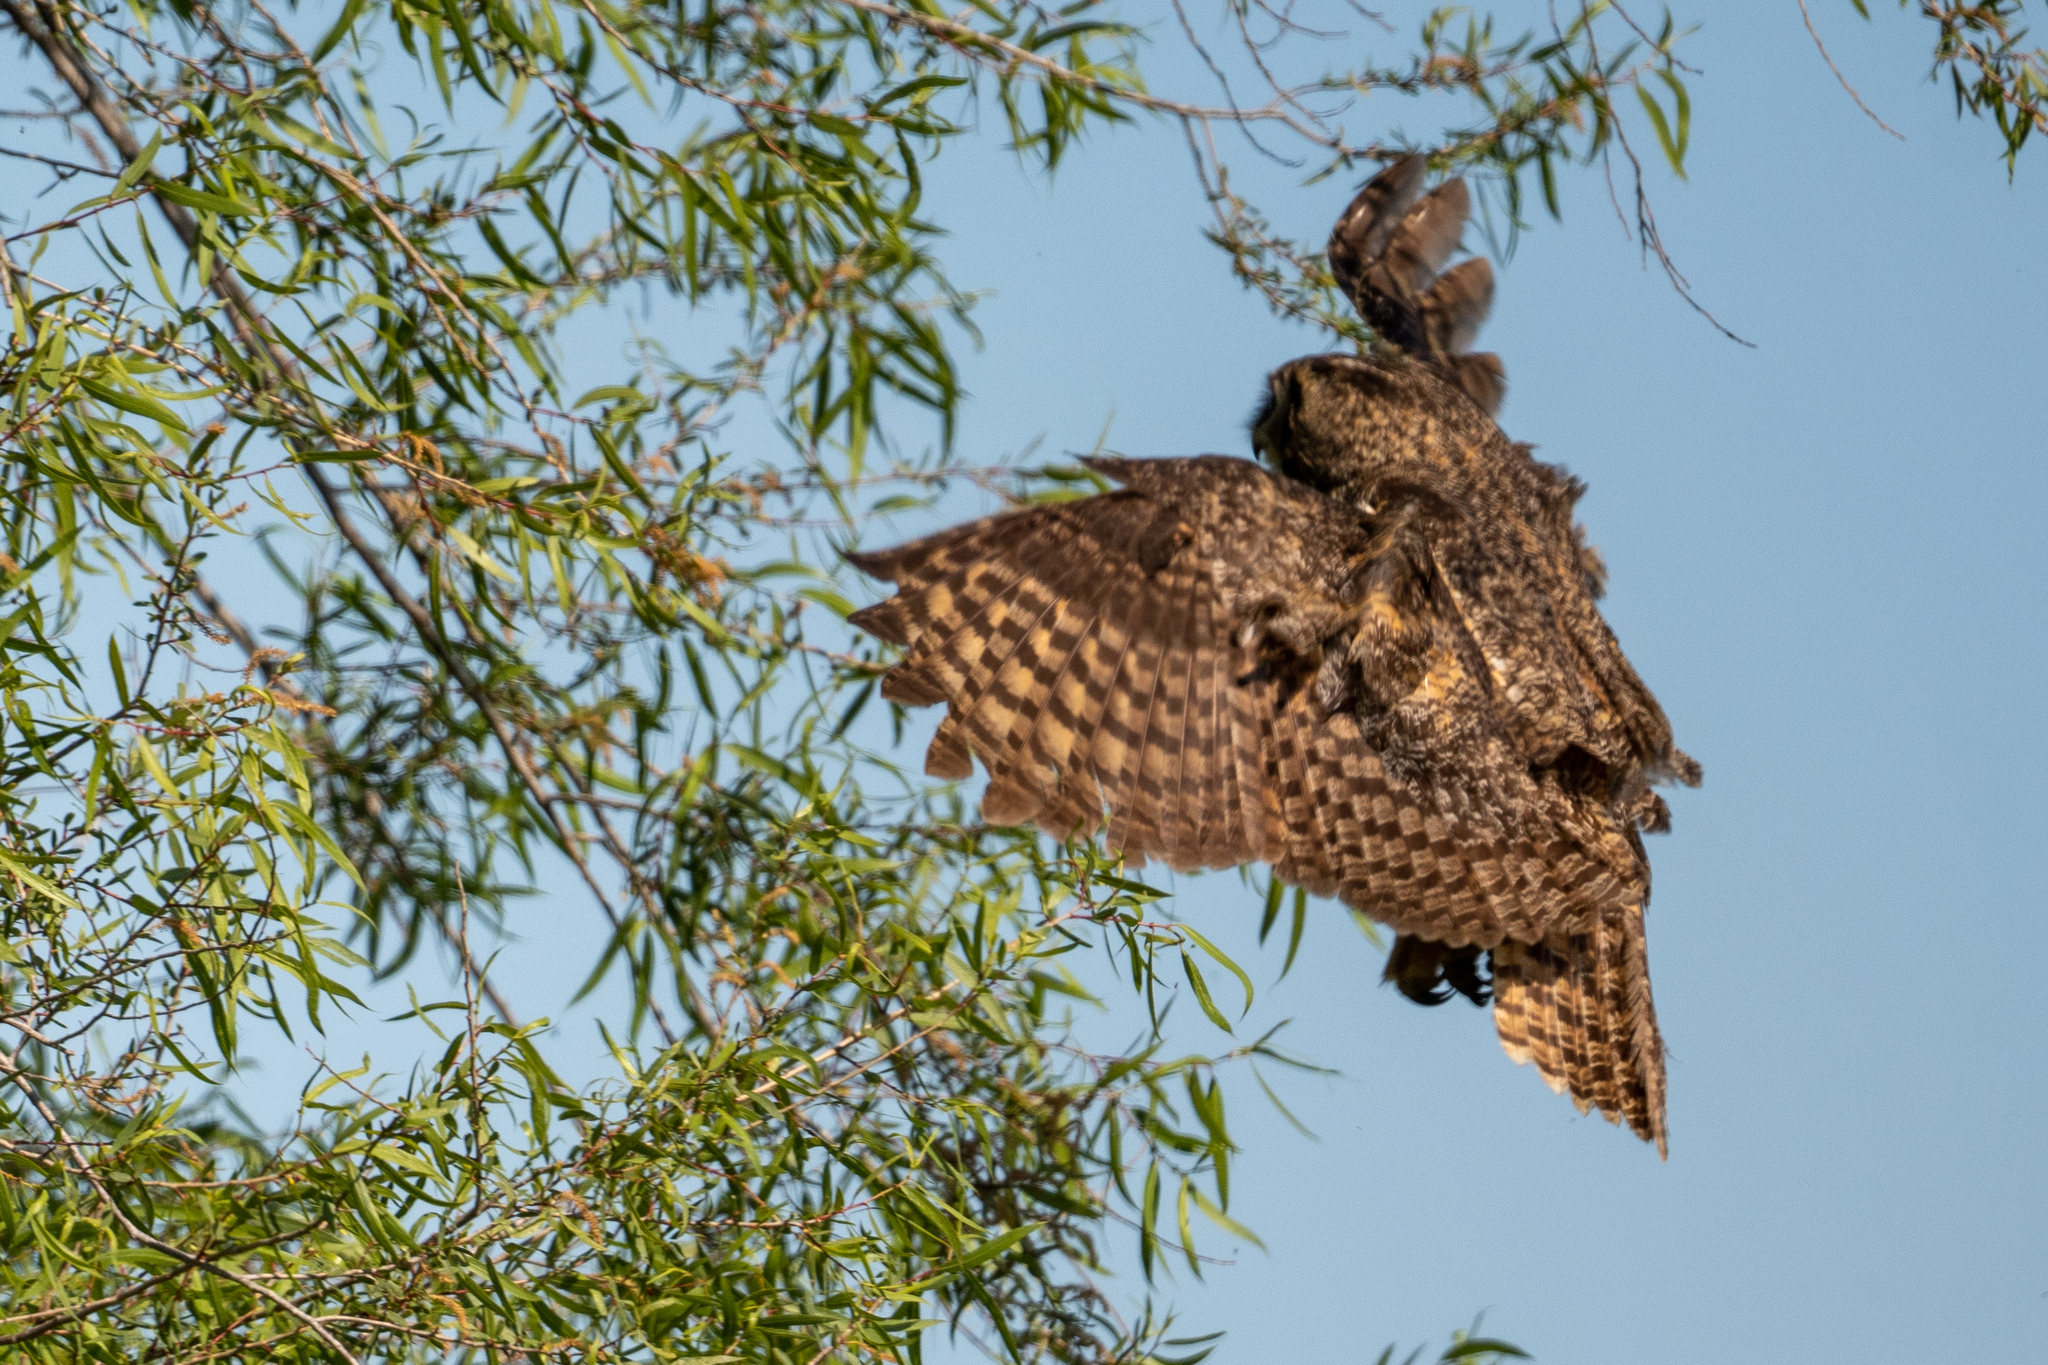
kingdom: Animalia
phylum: Chordata
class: Aves
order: Strigiformes
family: Strigidae
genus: Bubo
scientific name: Bubo virginianus
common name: Great horned owl
